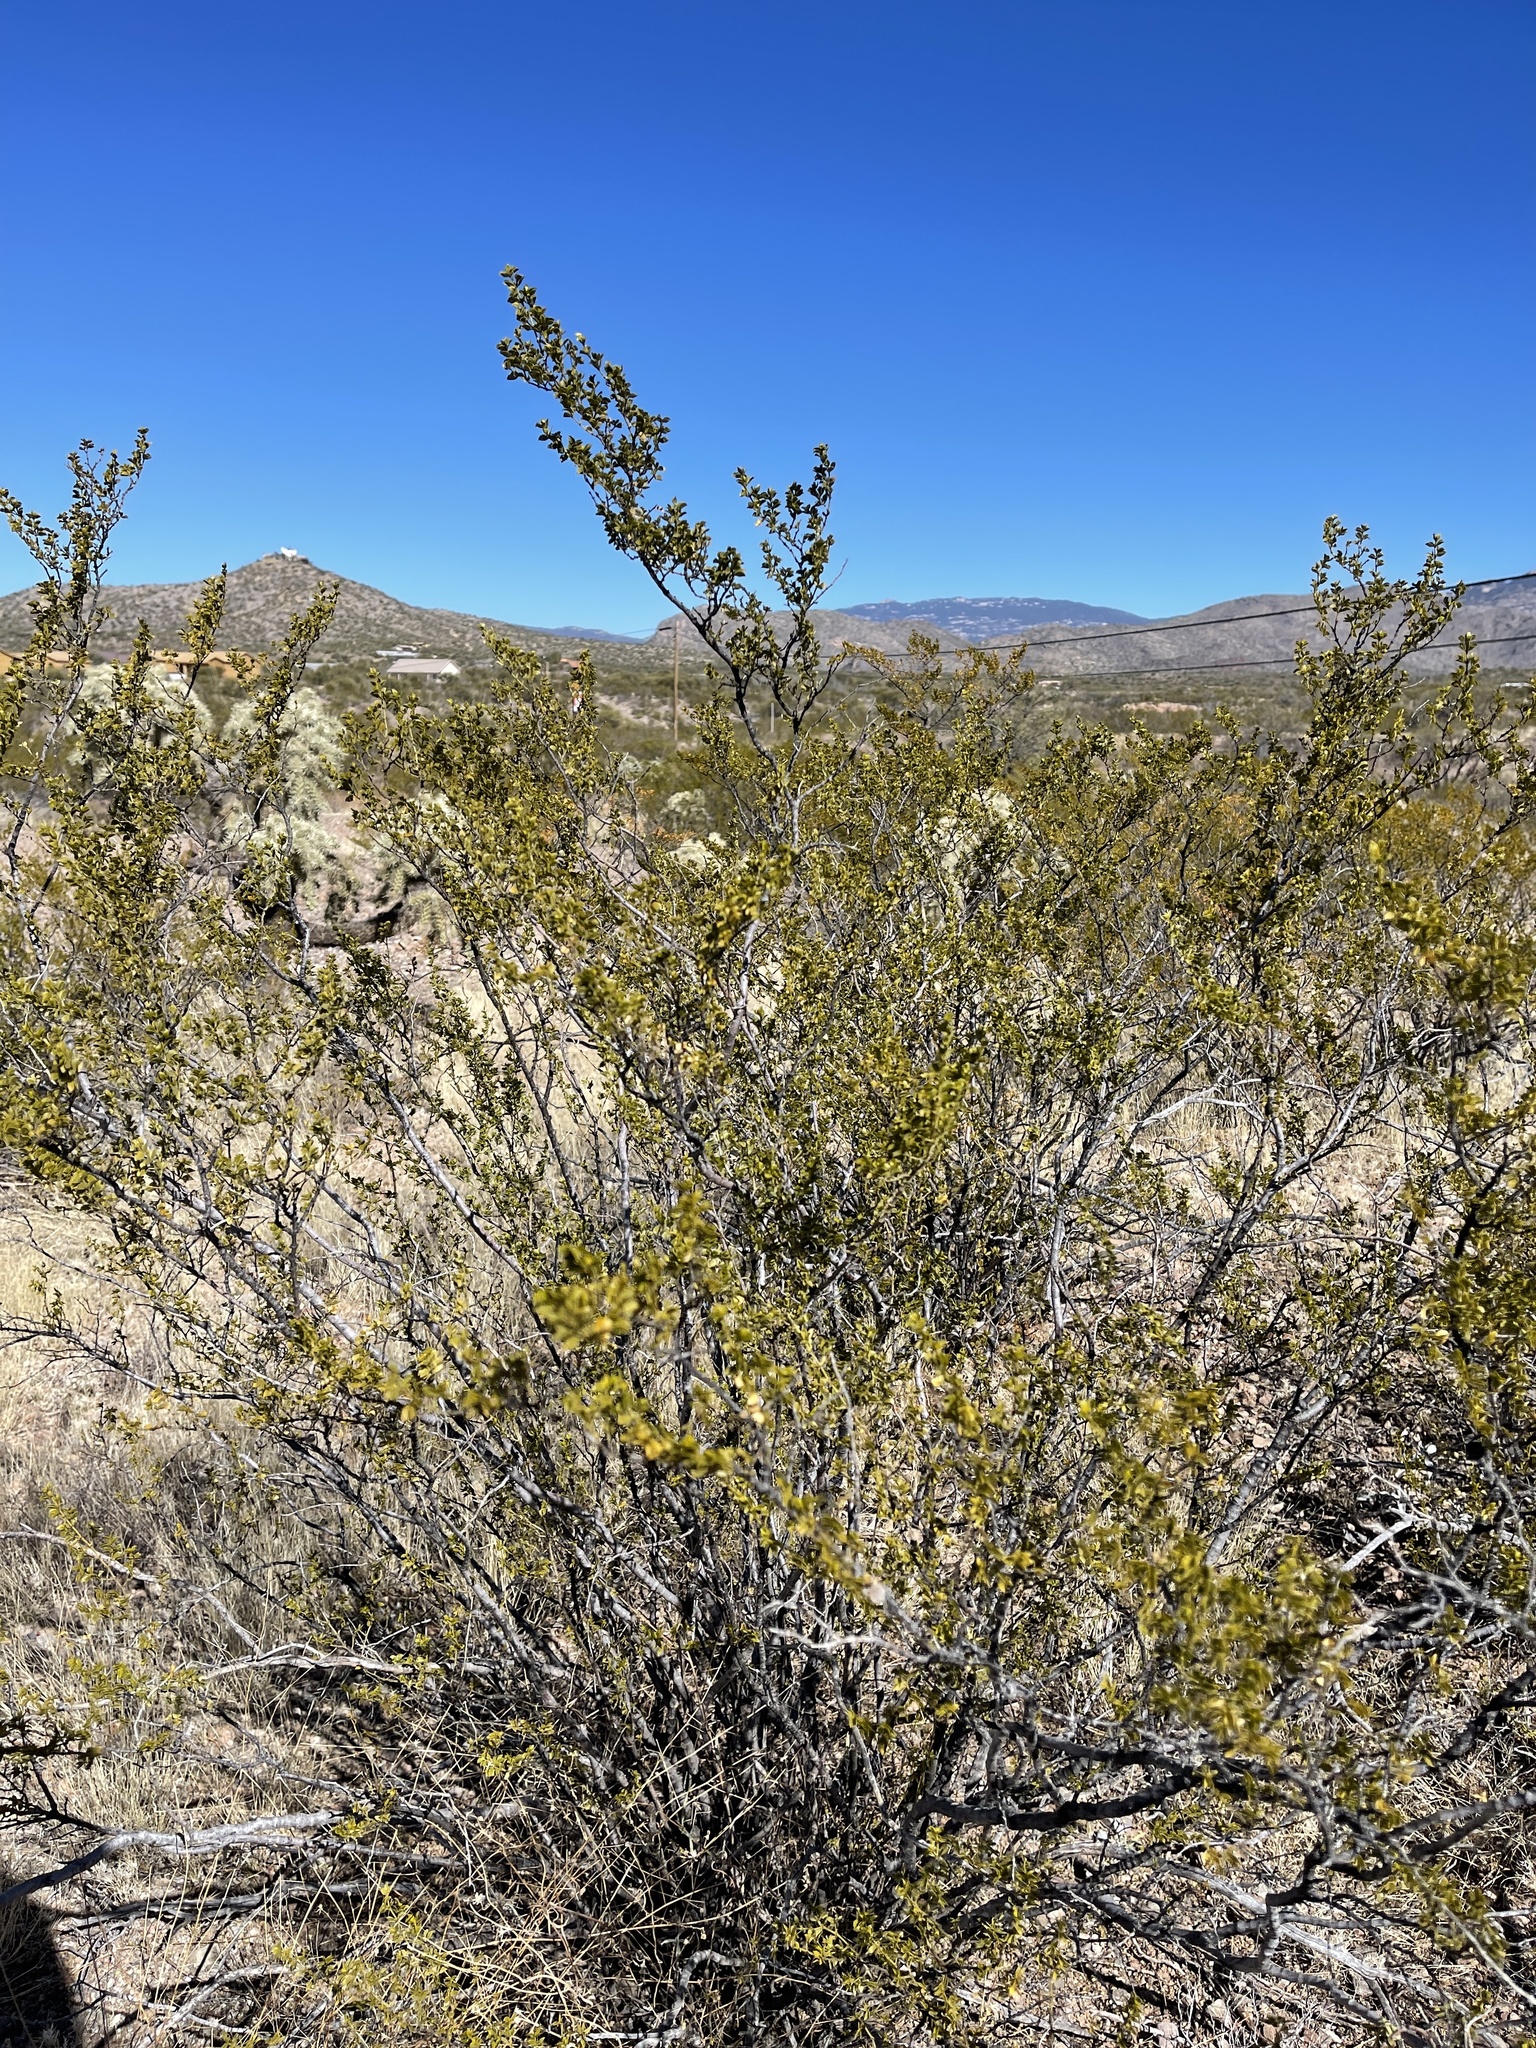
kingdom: Plantae
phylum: Tracheophyta
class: Magnoliopsida
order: Zygophyllales
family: Zygophyllaceae
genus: Larrea
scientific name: Larrea tridentata
